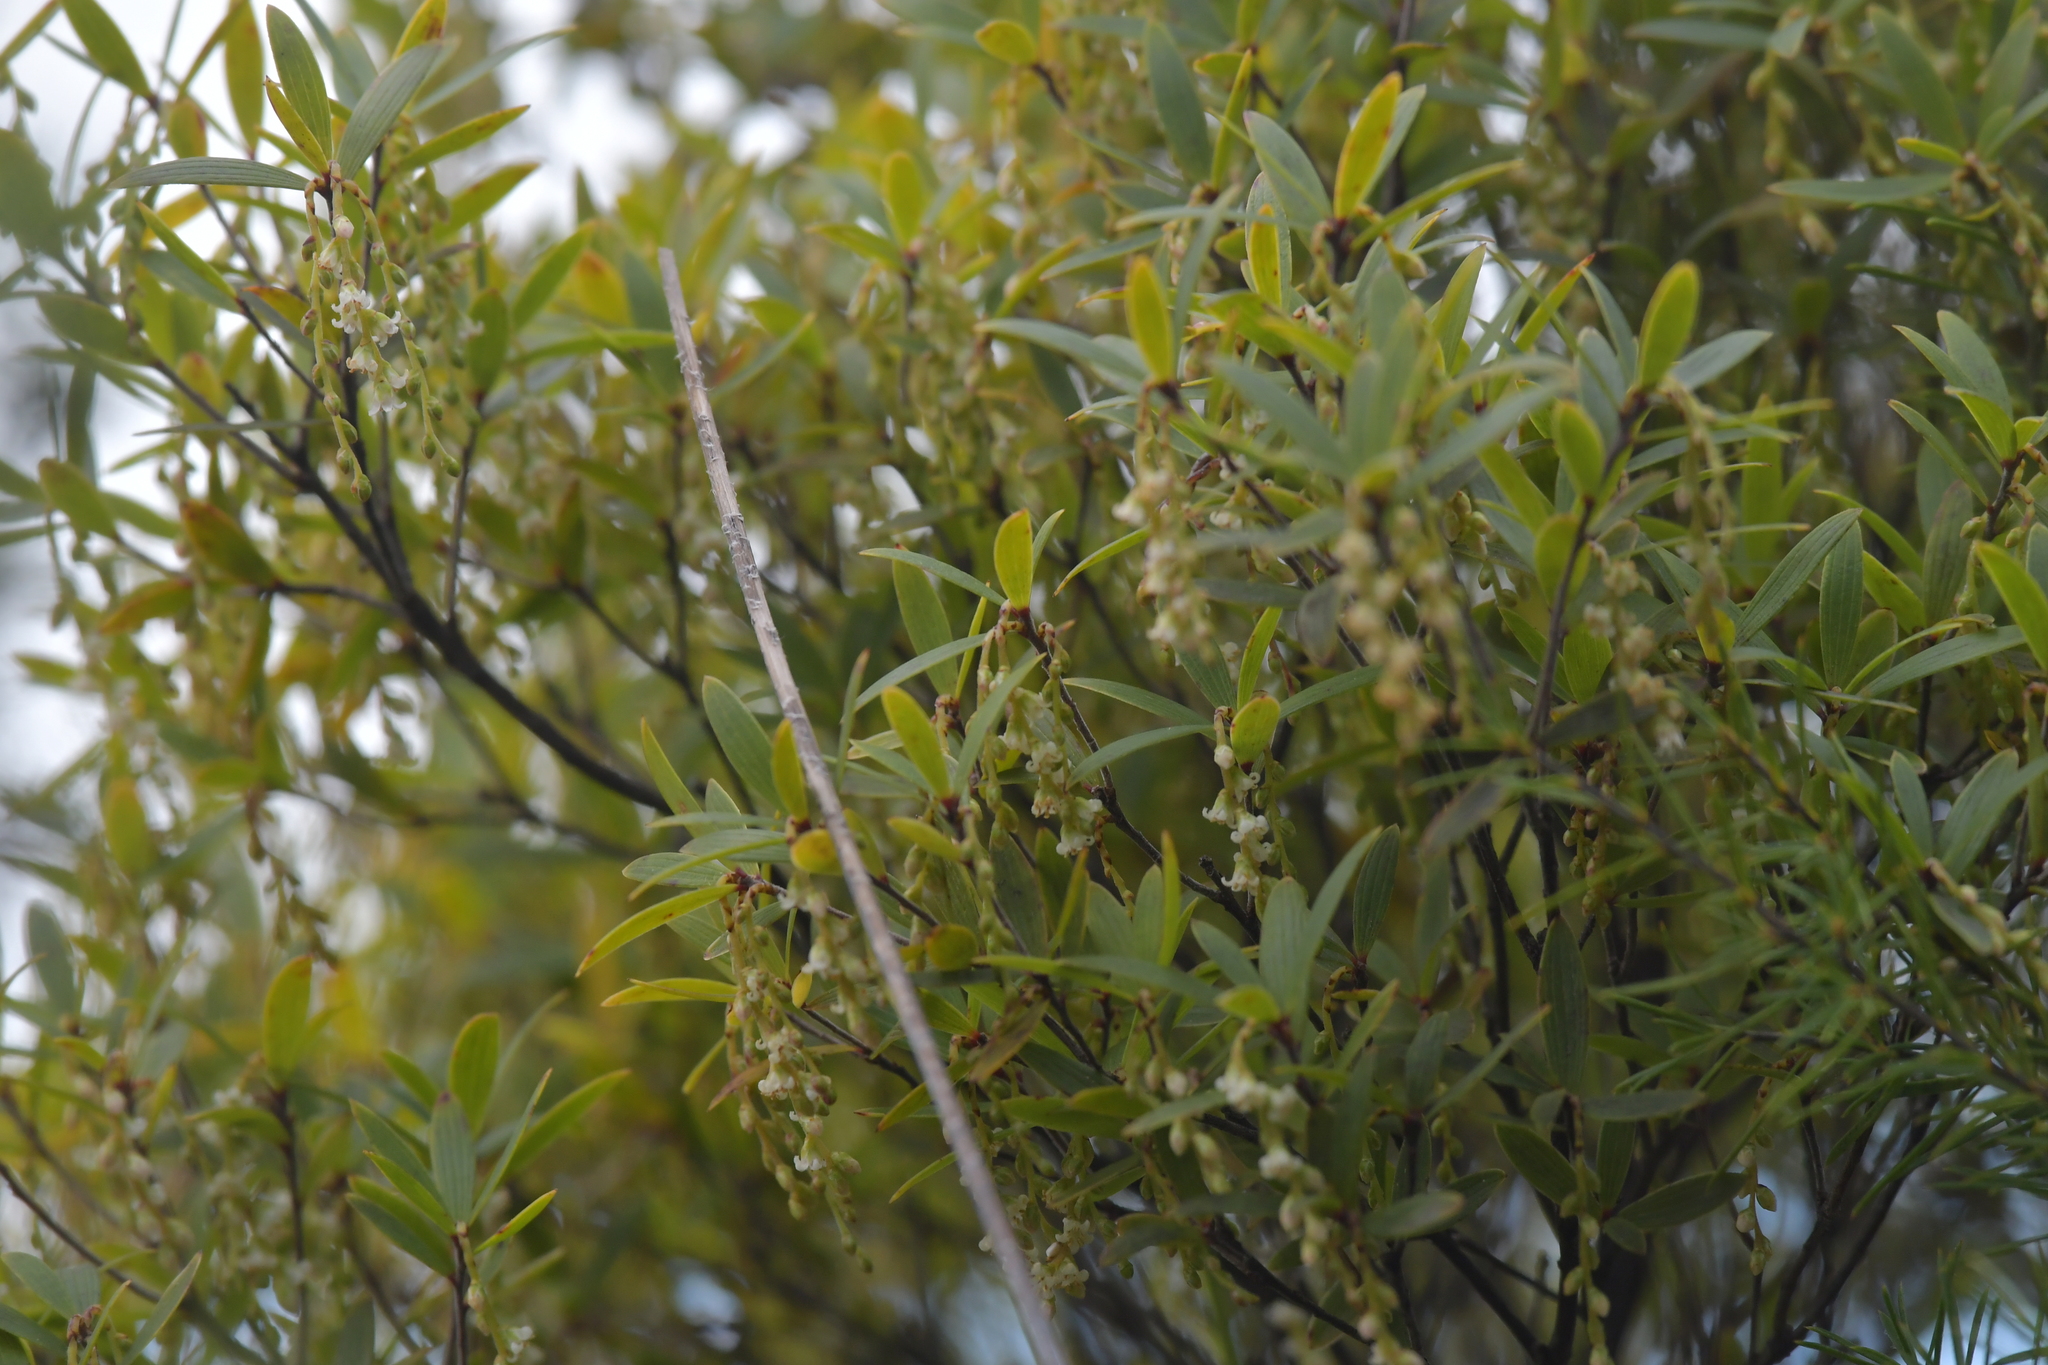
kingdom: Plantae
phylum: Tracheophyta
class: Magnoliopsida
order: Ericales
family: Ericaceae
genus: Leucopogon
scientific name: Leucopogon fasciculatus
